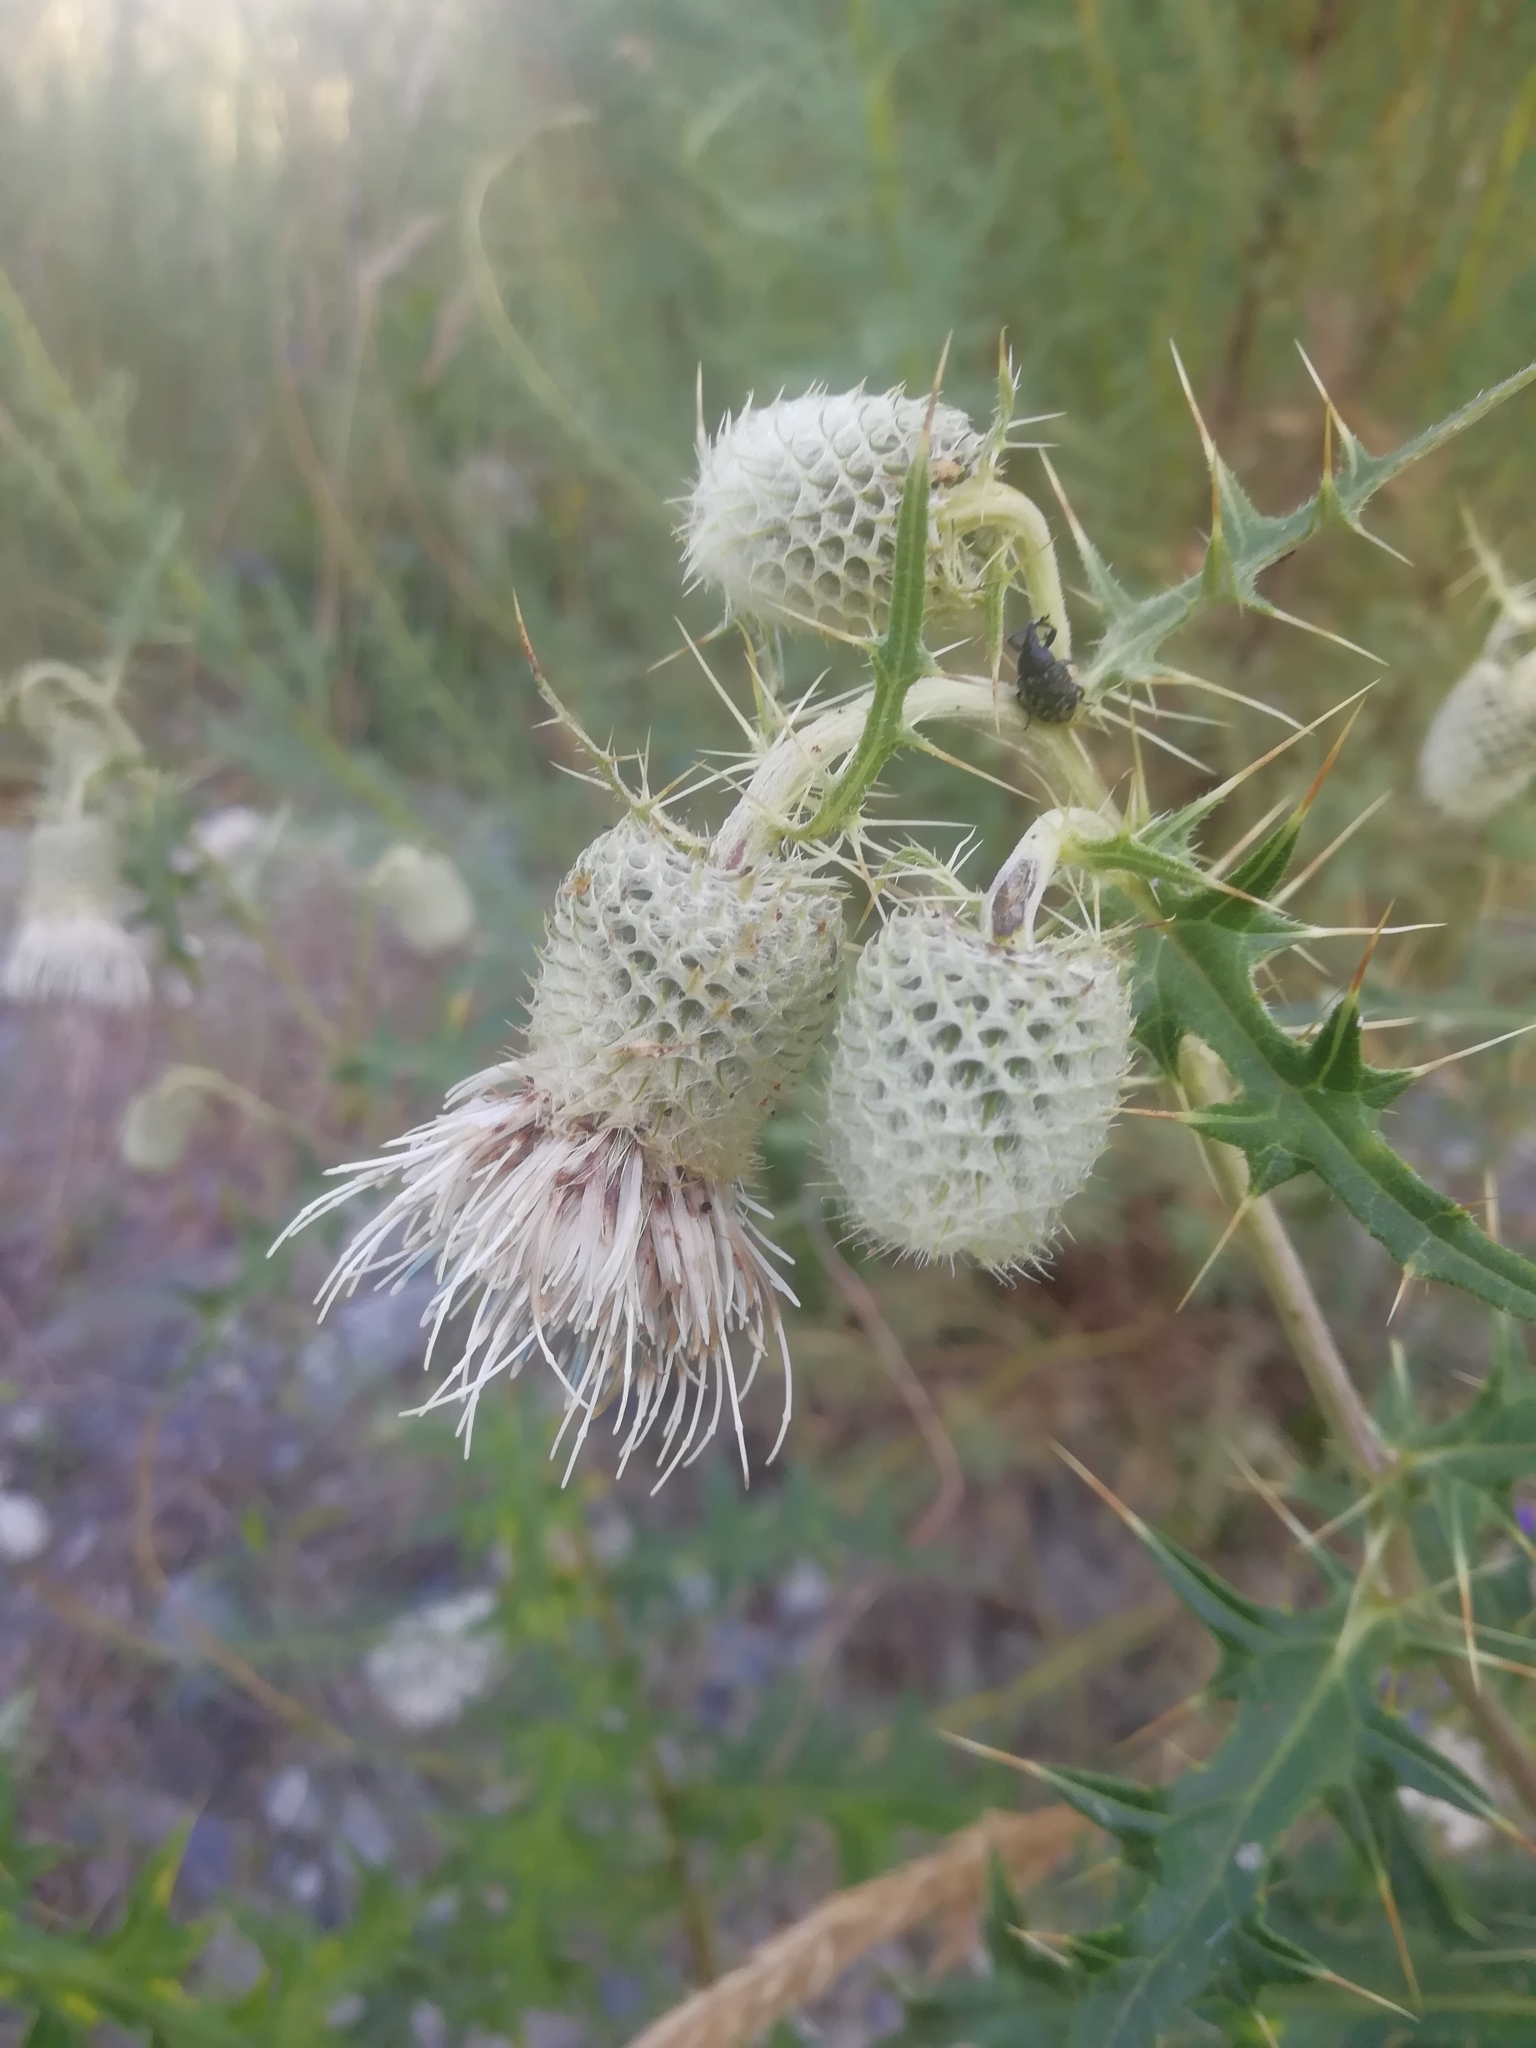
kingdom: Plantae
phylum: Tracheophyta
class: Magnoliopsida
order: Asterales
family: Asteraceae
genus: Lophiolepis
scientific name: Lophiolepis chlorocoma
